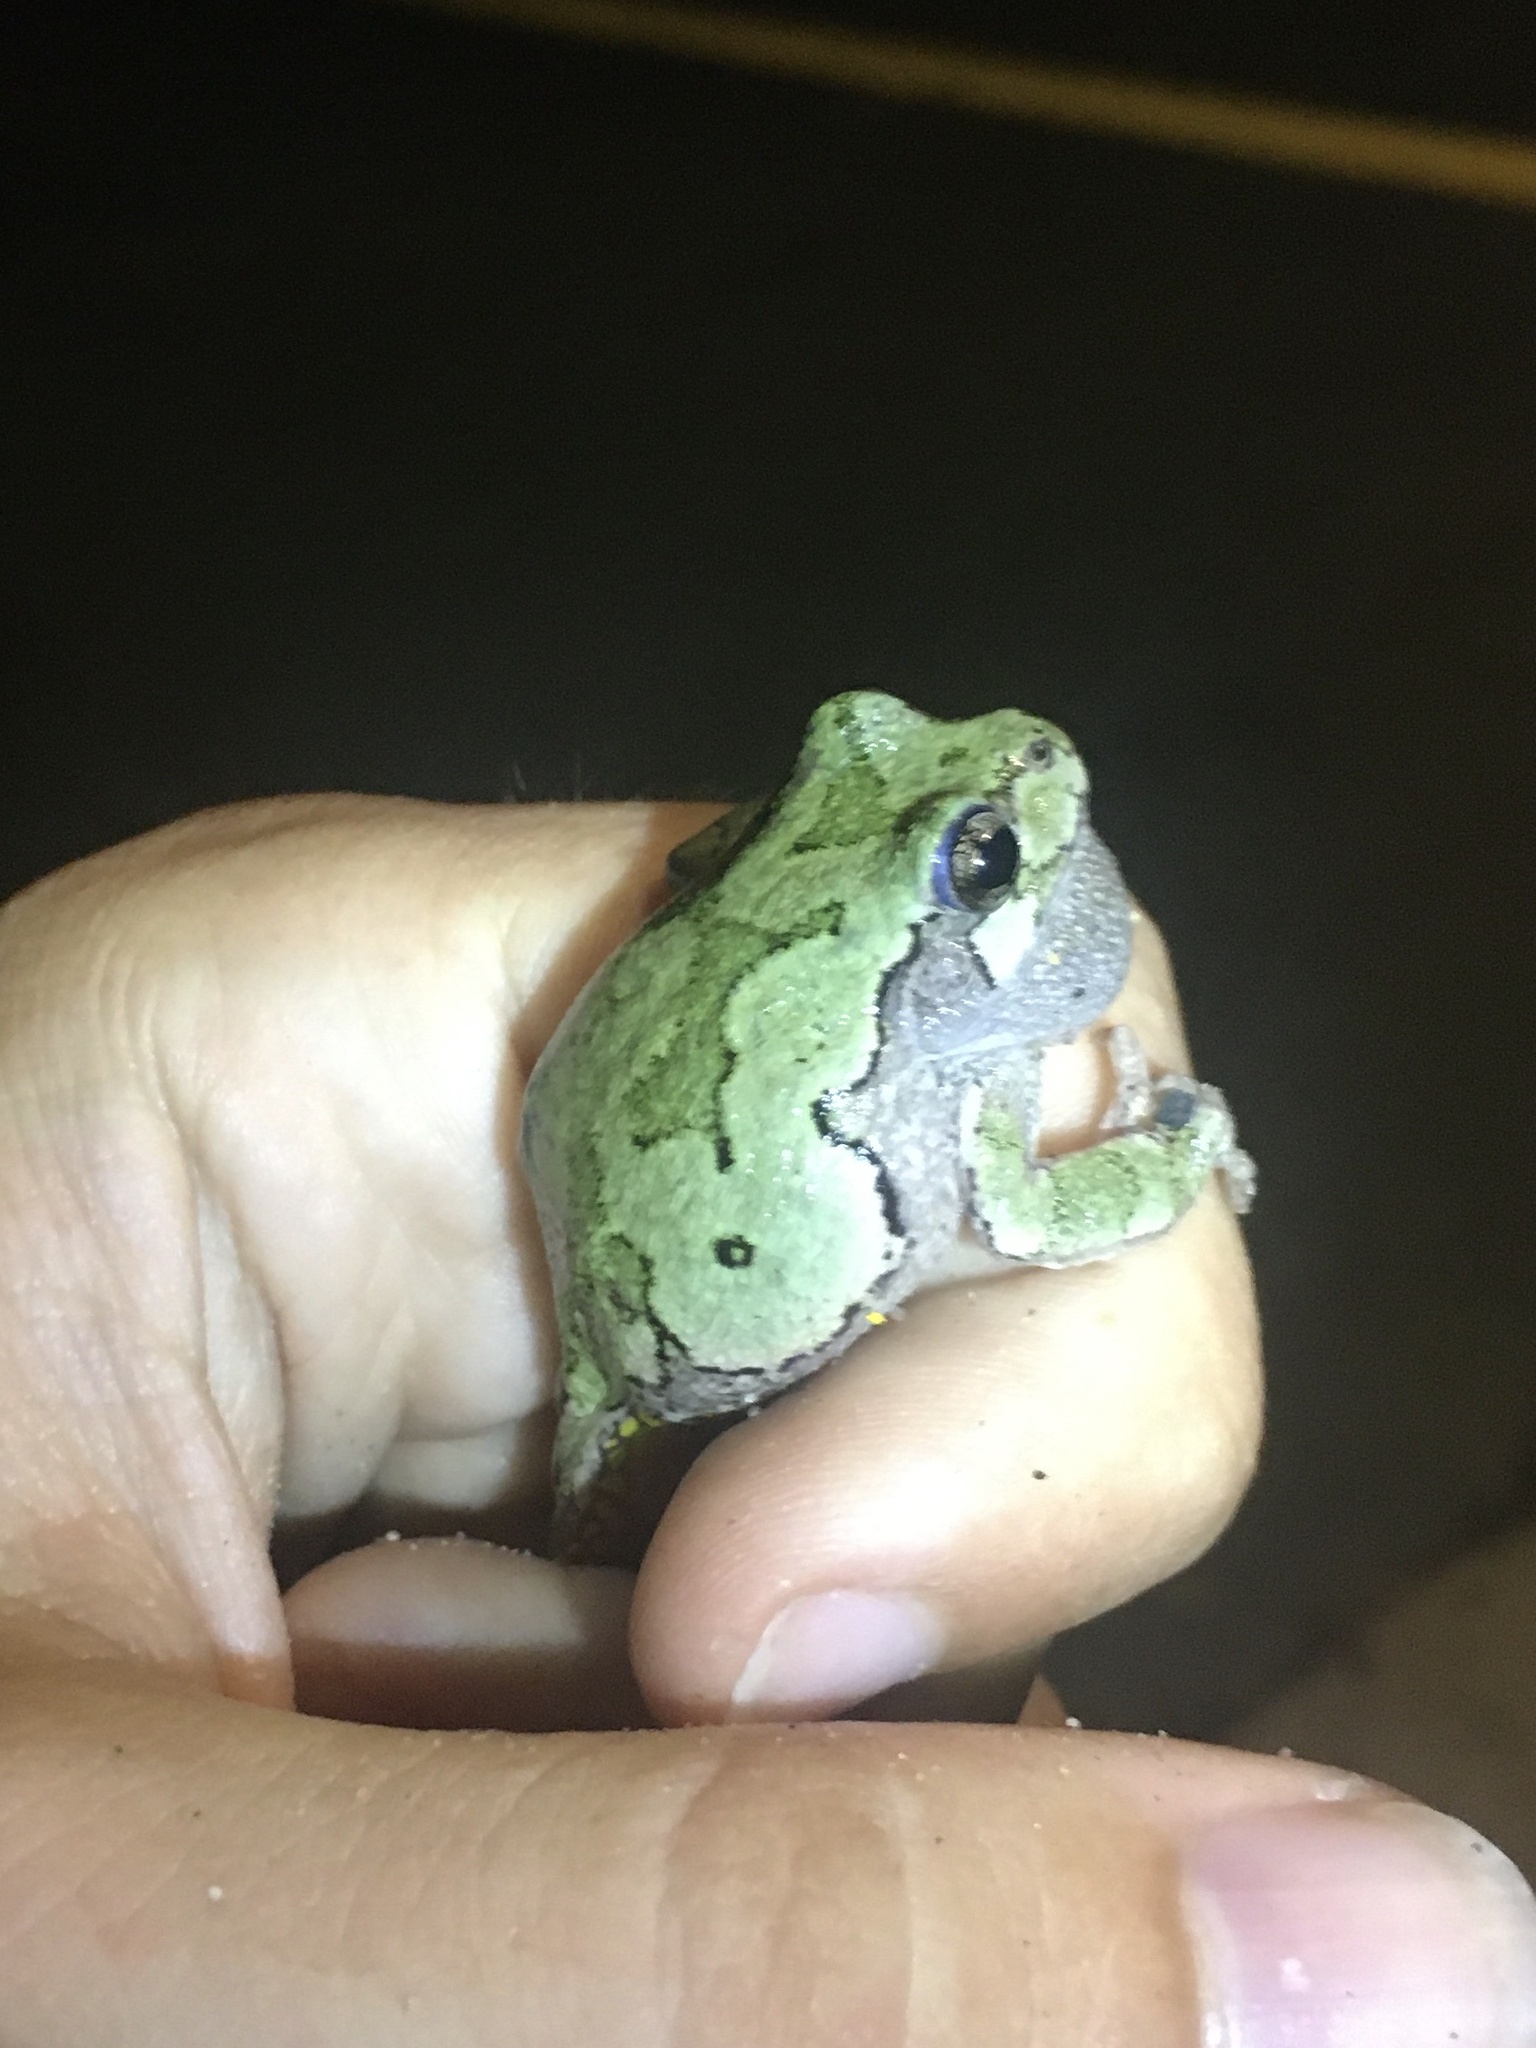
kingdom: Animalia
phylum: Chordata
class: Amphibia
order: Anura
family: Hylidae
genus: Dryophytes
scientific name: Dryophytes versicolor
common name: Gray treefrog
